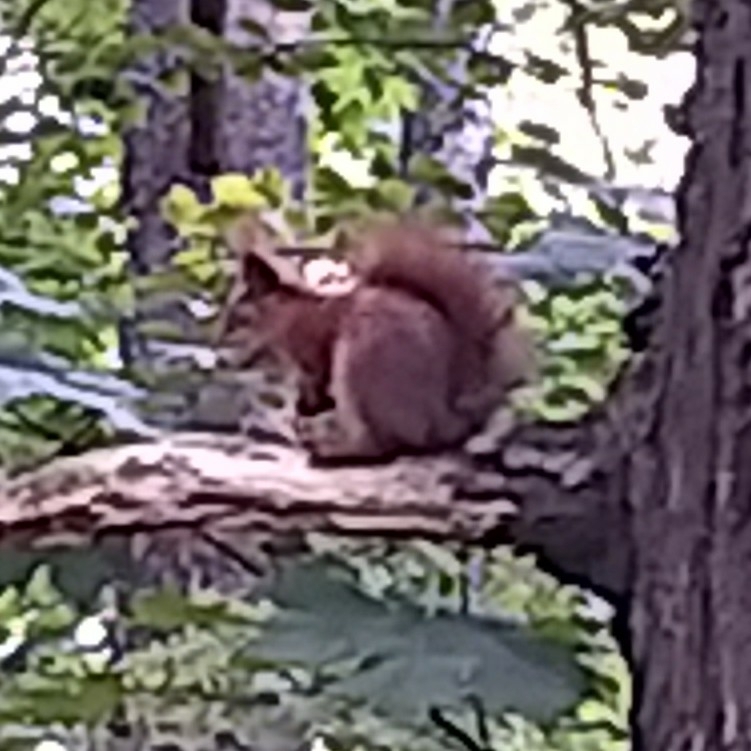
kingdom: Animalia
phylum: Chordata
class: Mammalia
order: Rodentia
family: Sciuridae
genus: Sciurus
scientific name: Sciurus vulgaris
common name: Eurasian red squirrel
